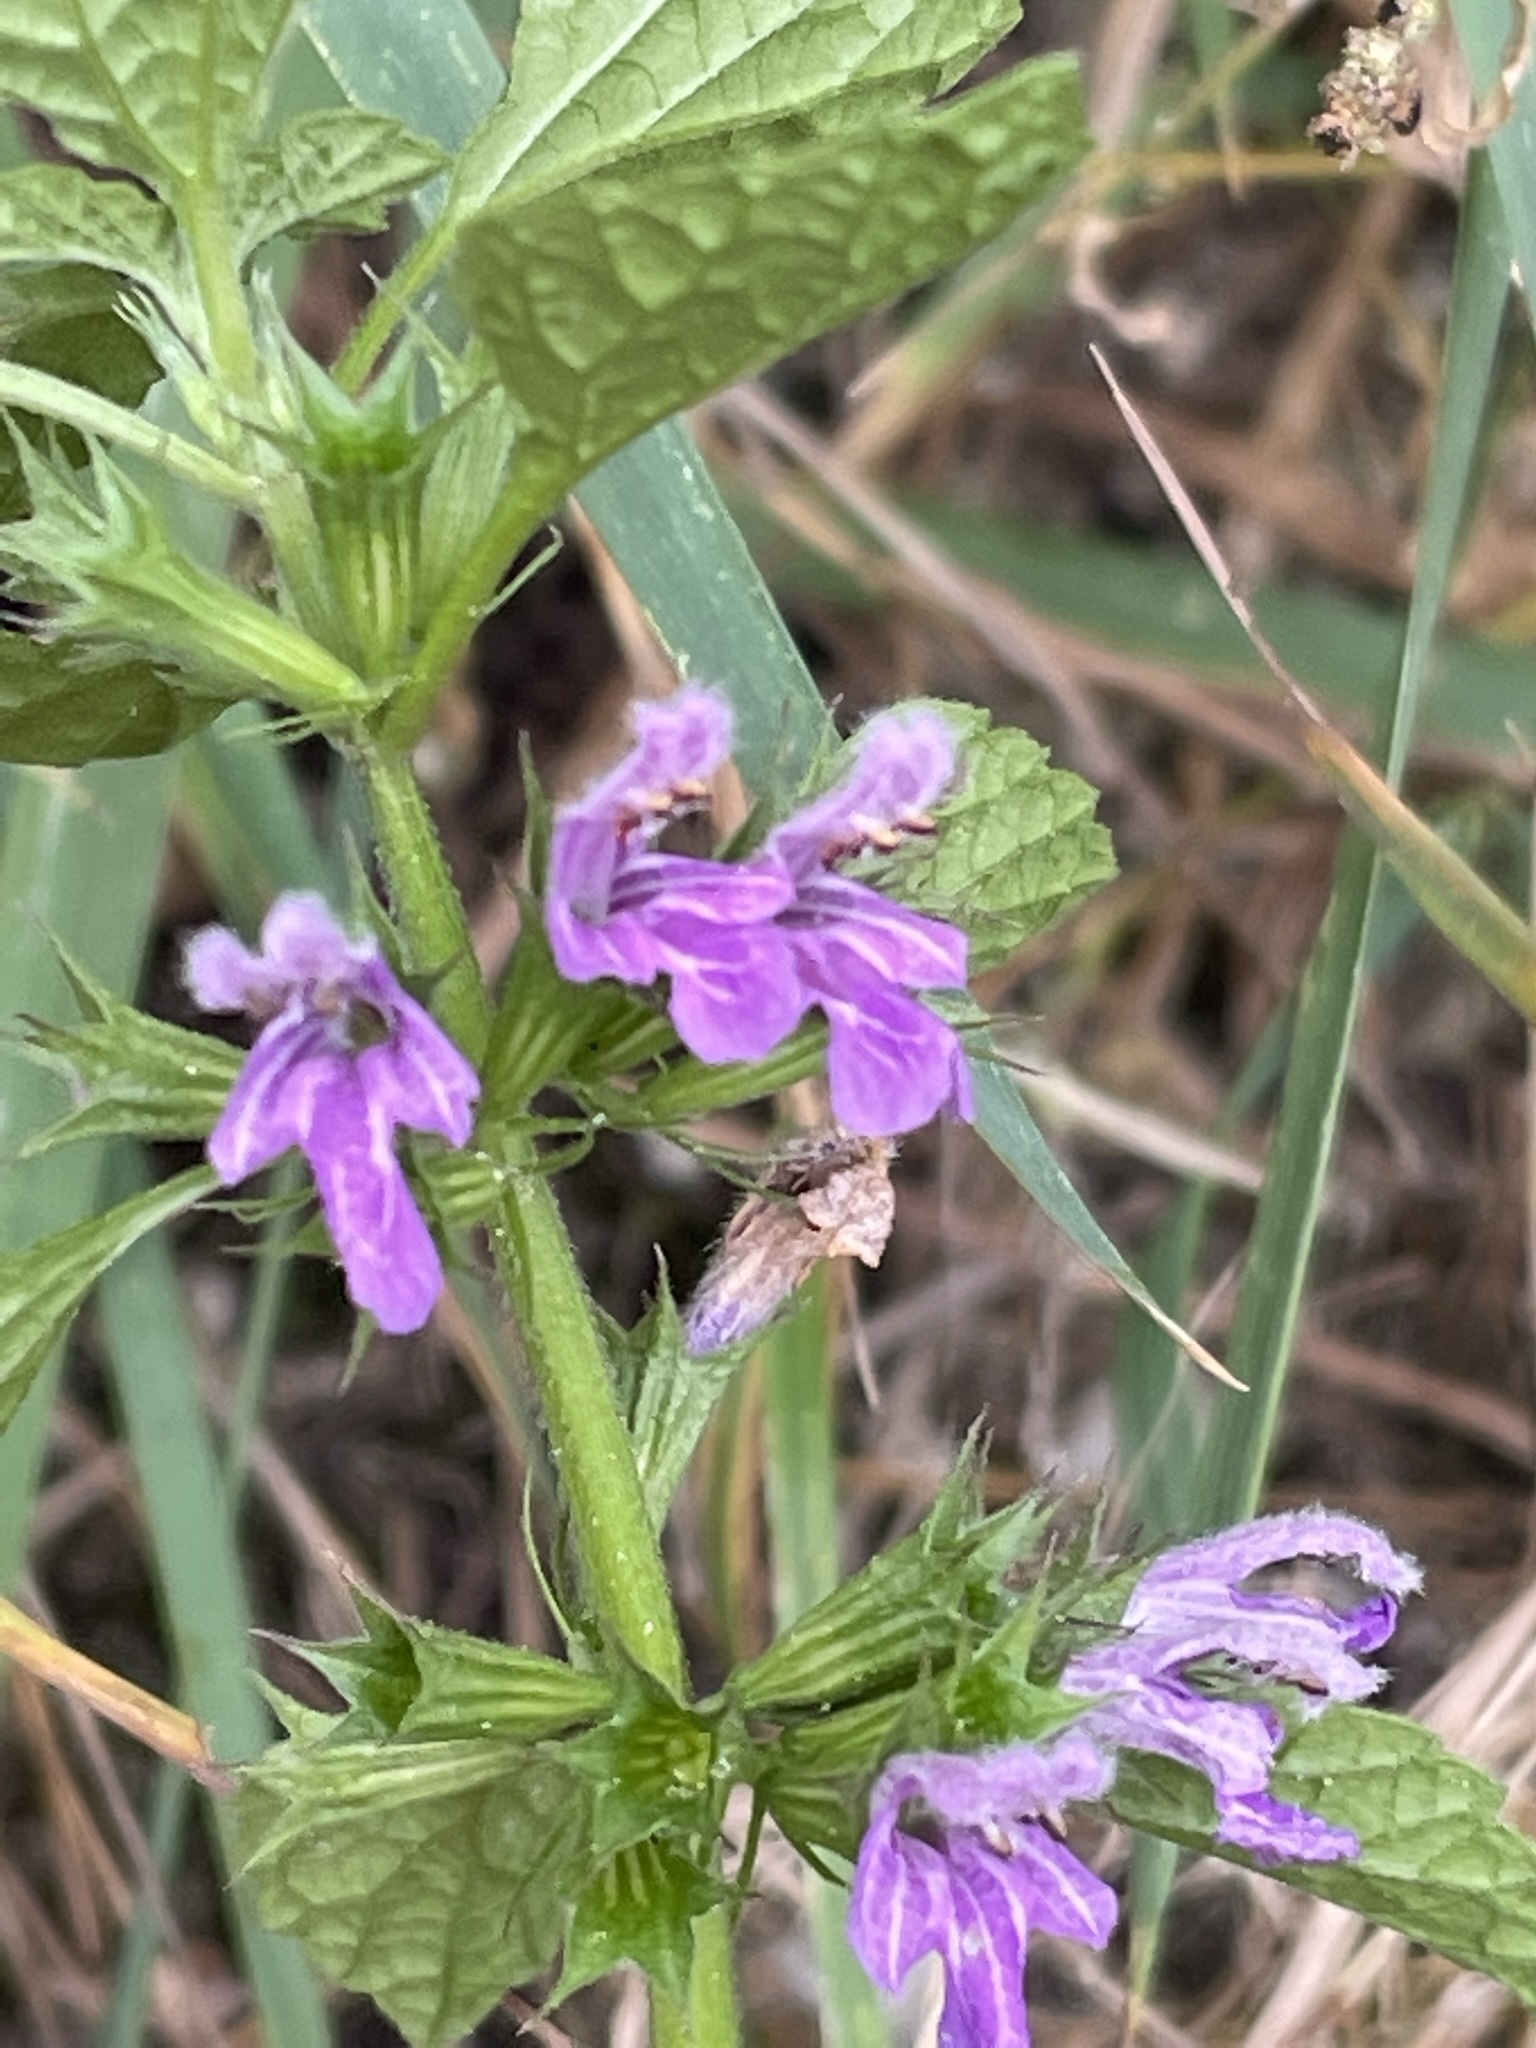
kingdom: Plantae
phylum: Tracheophyta
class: Magnoliopsida
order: Lamiales
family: Lamiaceae
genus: Ballota
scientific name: Ballota nigra
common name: Black horehound
